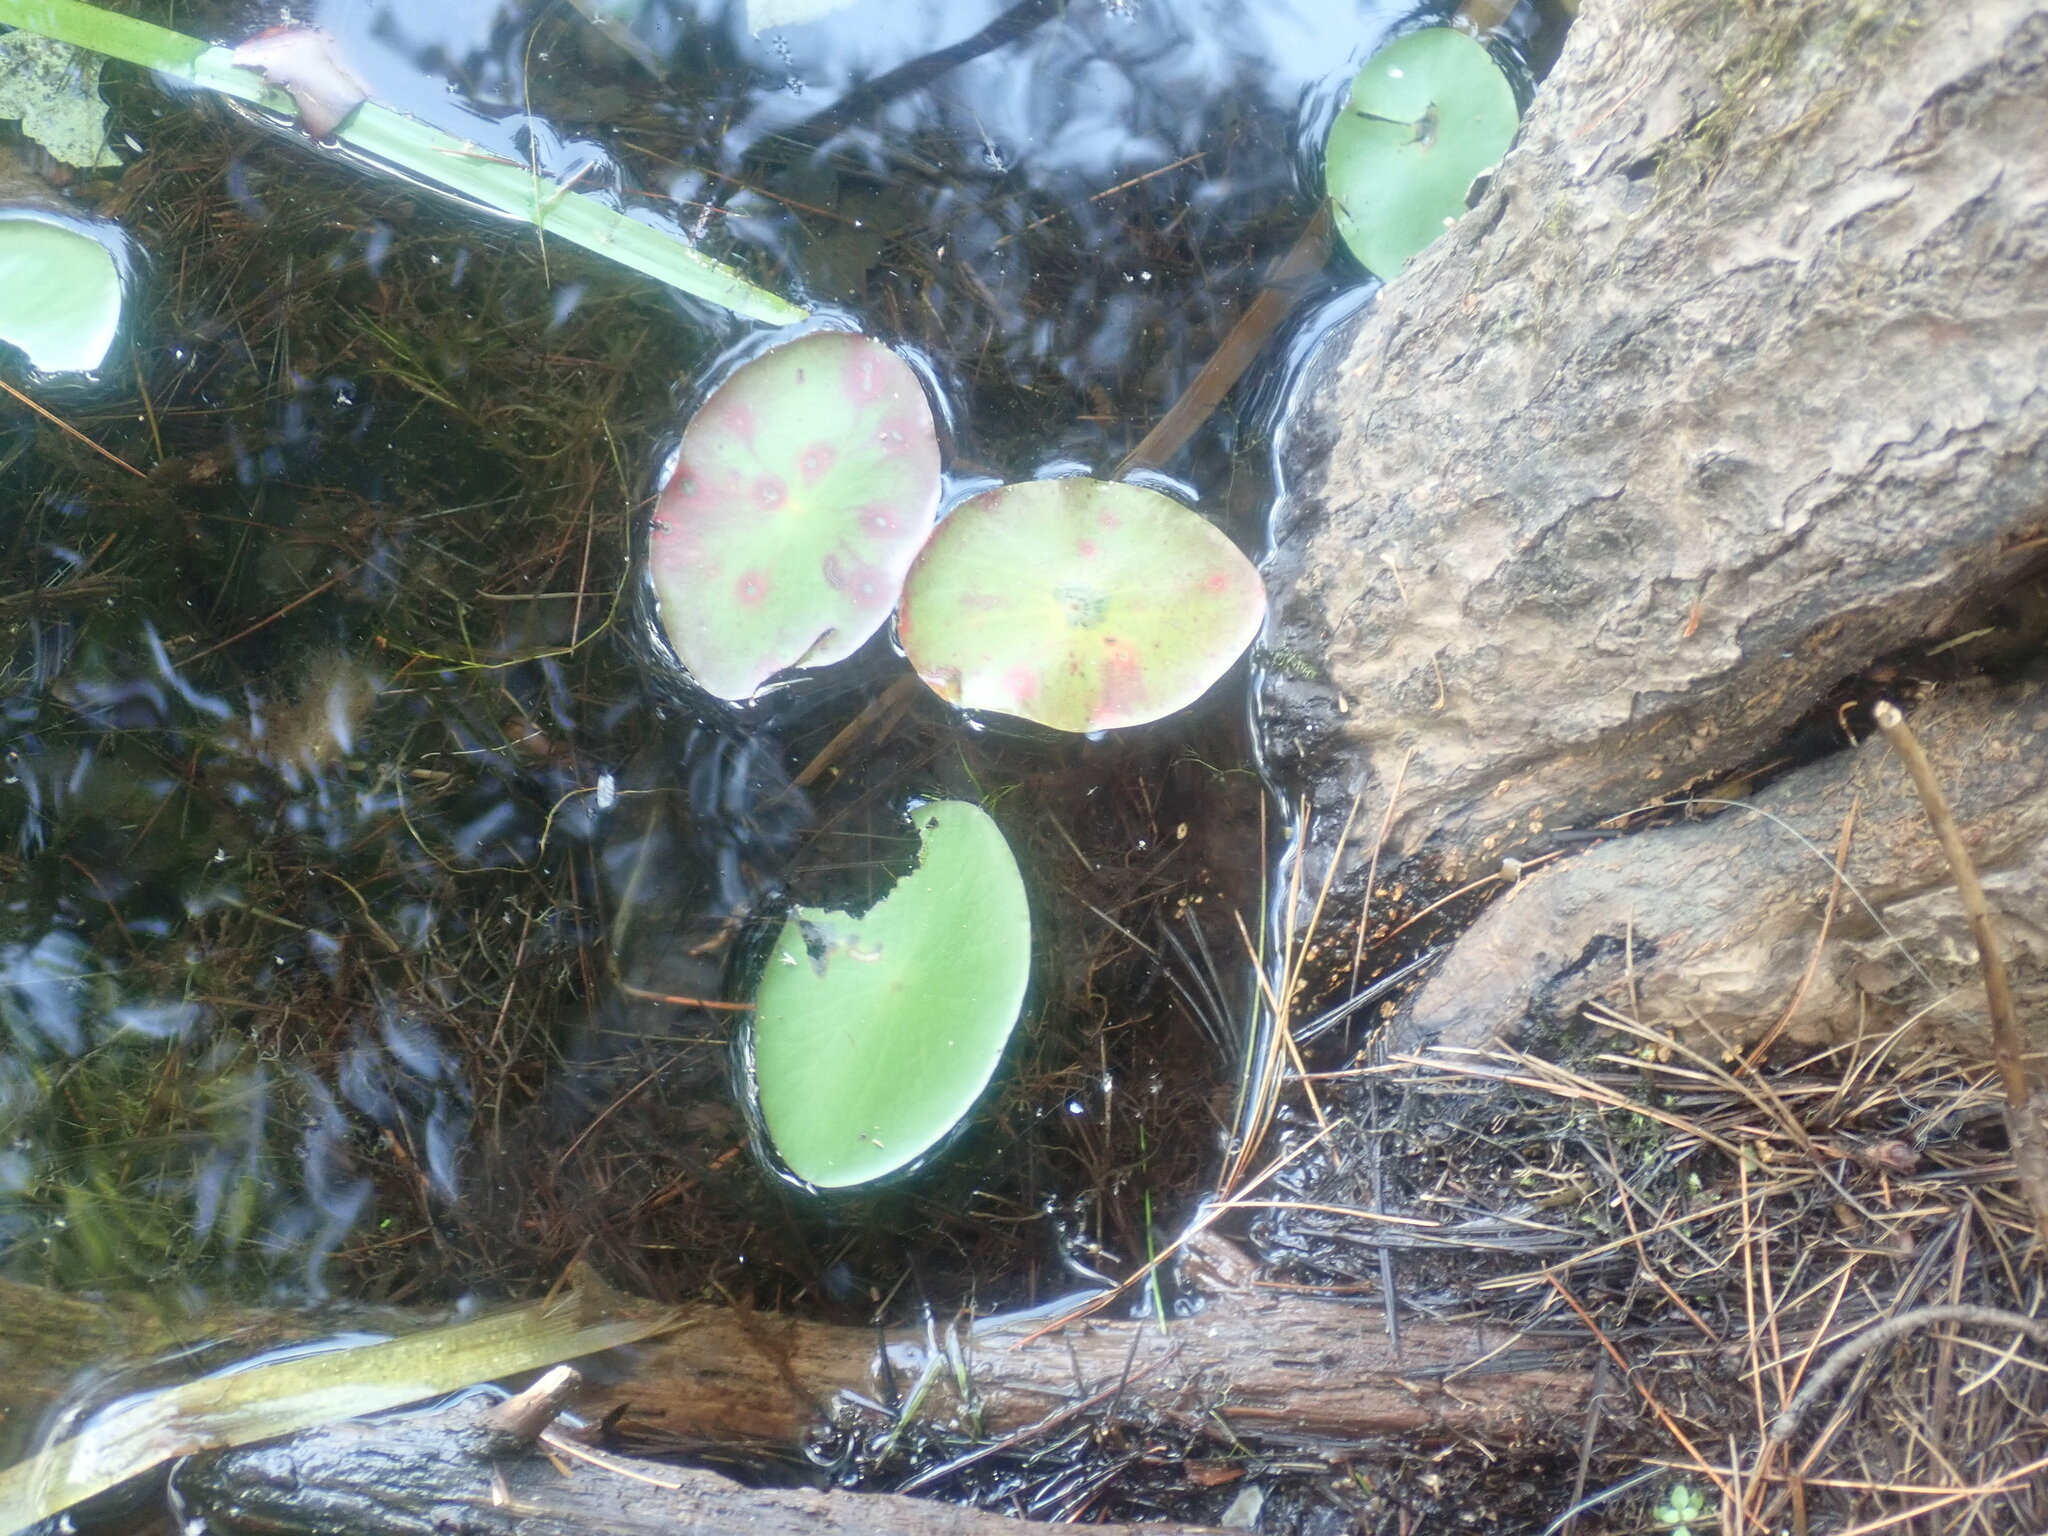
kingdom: Plantae
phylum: Tracheophyta
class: Magnoliopsida
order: Nymphaeales
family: Cabombaceae
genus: Brasenia
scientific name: Brasenia schreberi
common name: Water-shield
